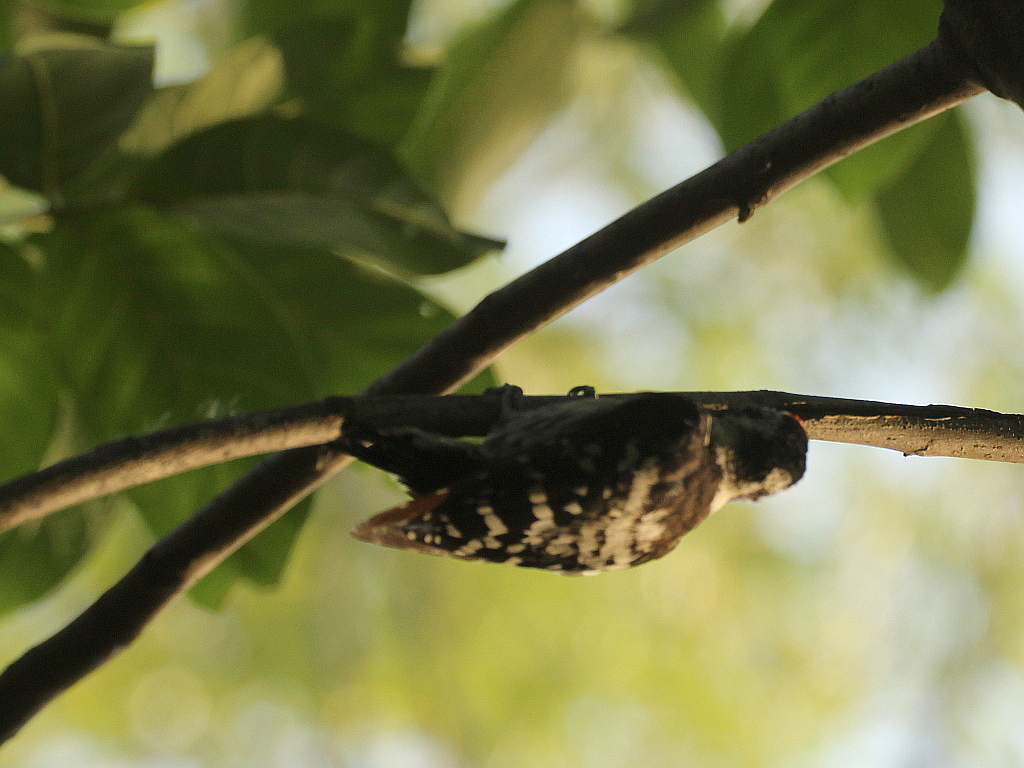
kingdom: Animalia
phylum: Chordata
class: Aves
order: Piciformes
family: Picidae
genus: Dryobates
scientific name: Dryobates minor
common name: Lesser spotted woodpecker
